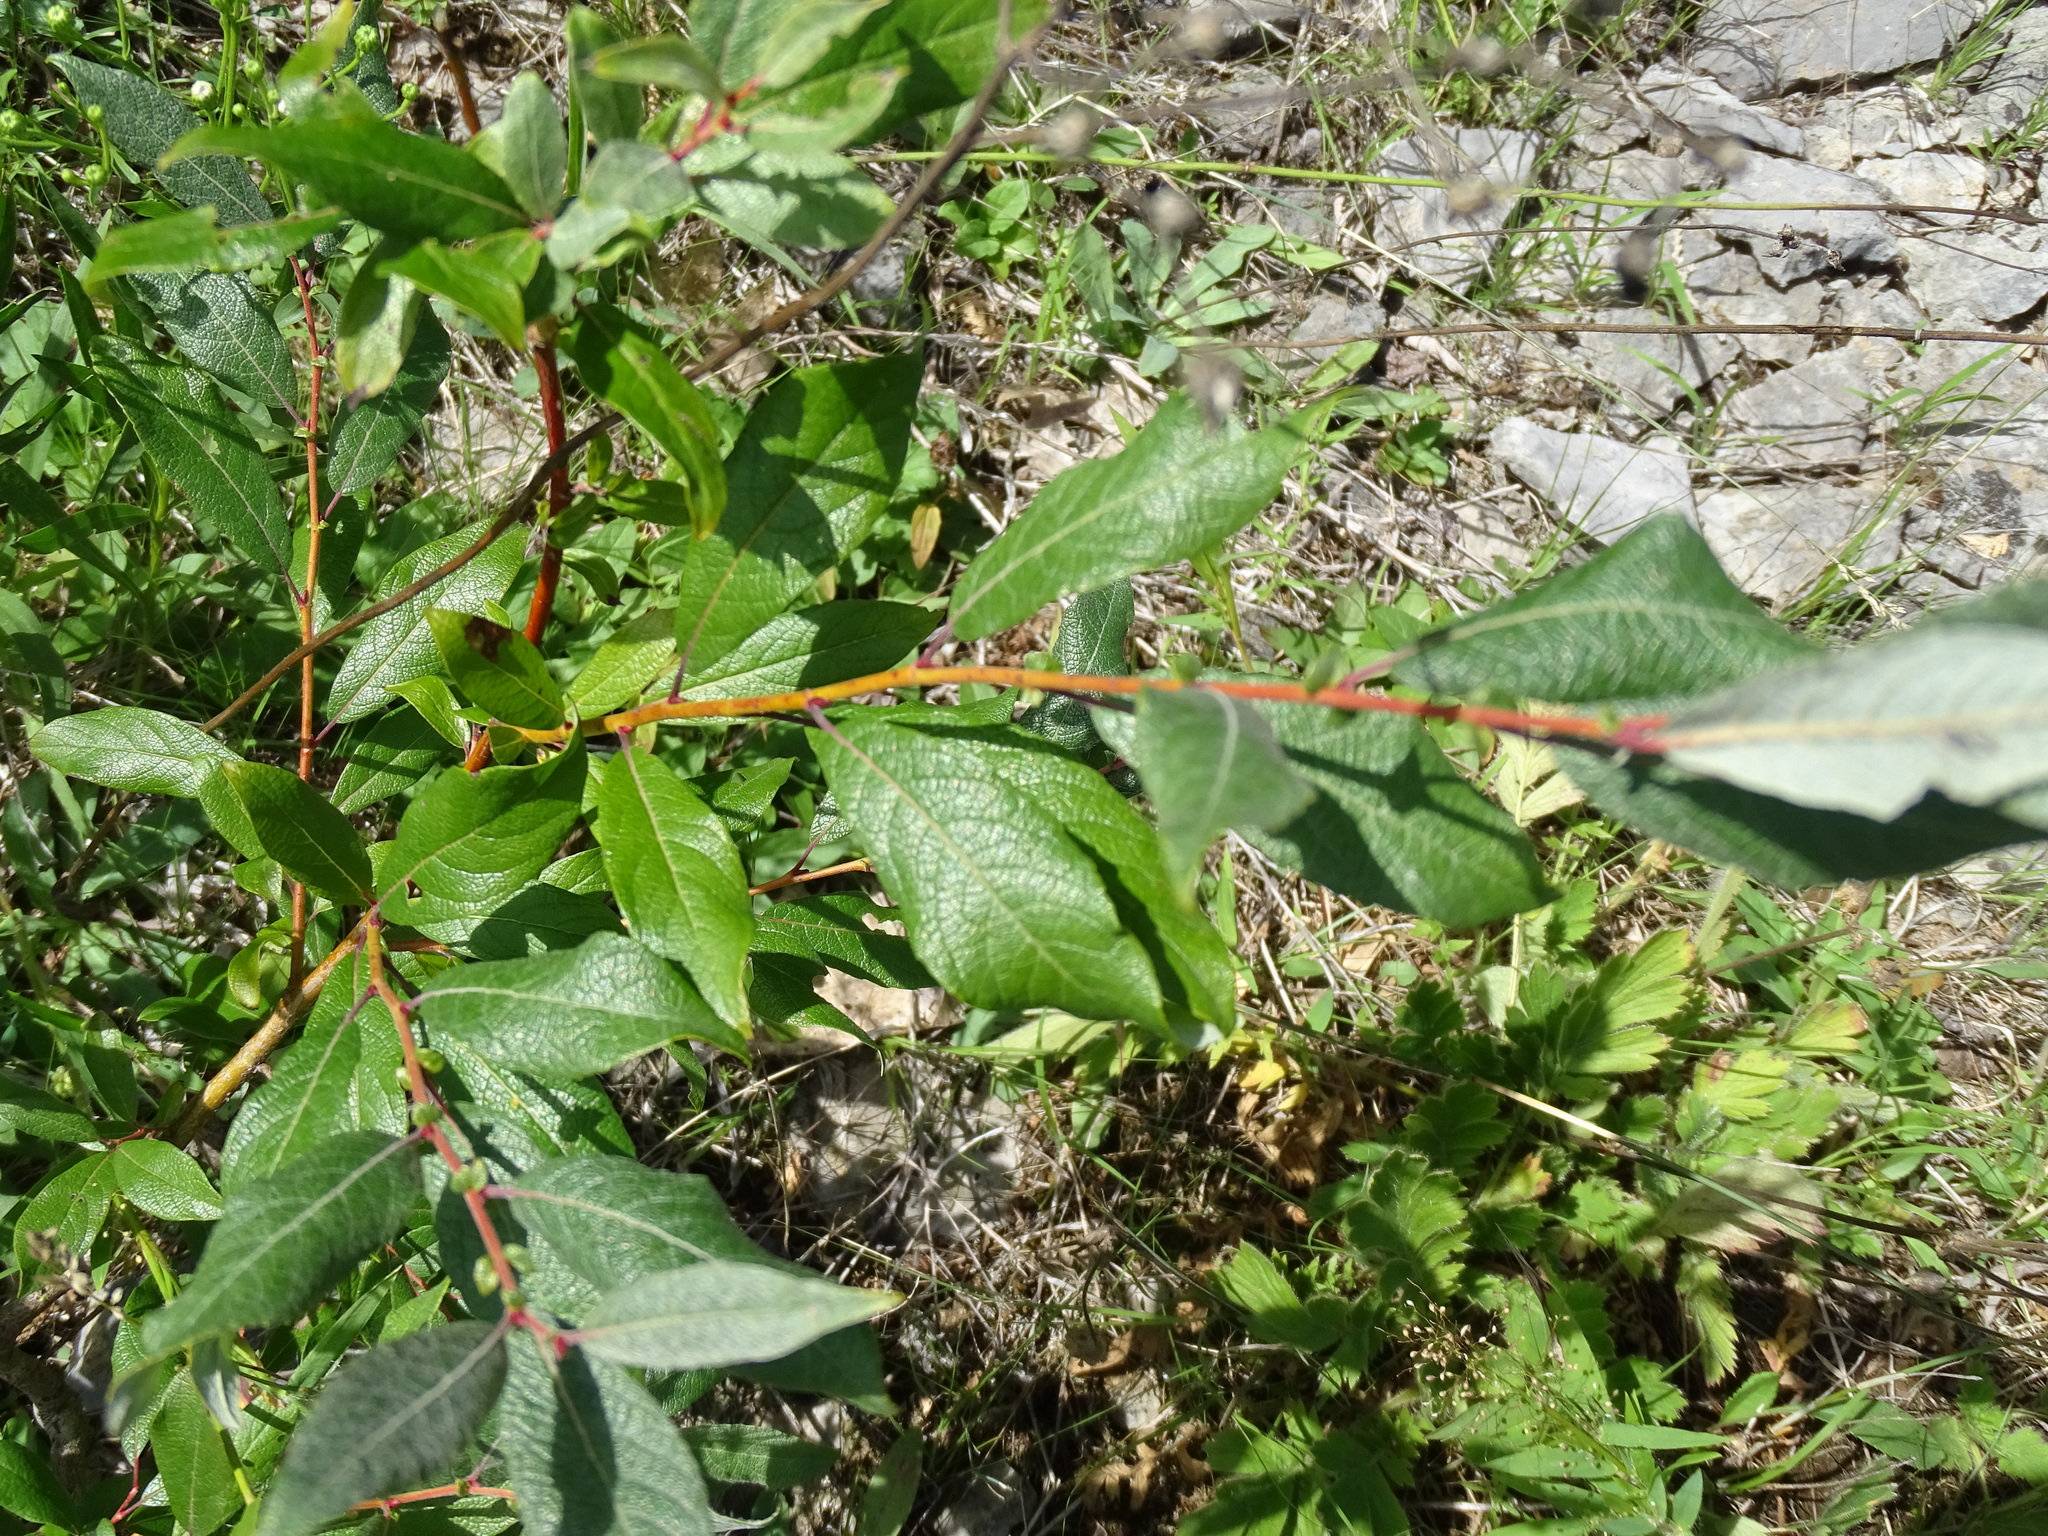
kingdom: Plantae
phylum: Tracheophyta
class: Magnoliopsida
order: Malpighiales
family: Salicaceae
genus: Salix
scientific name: Salix bebbiana
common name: Bebb's willow
